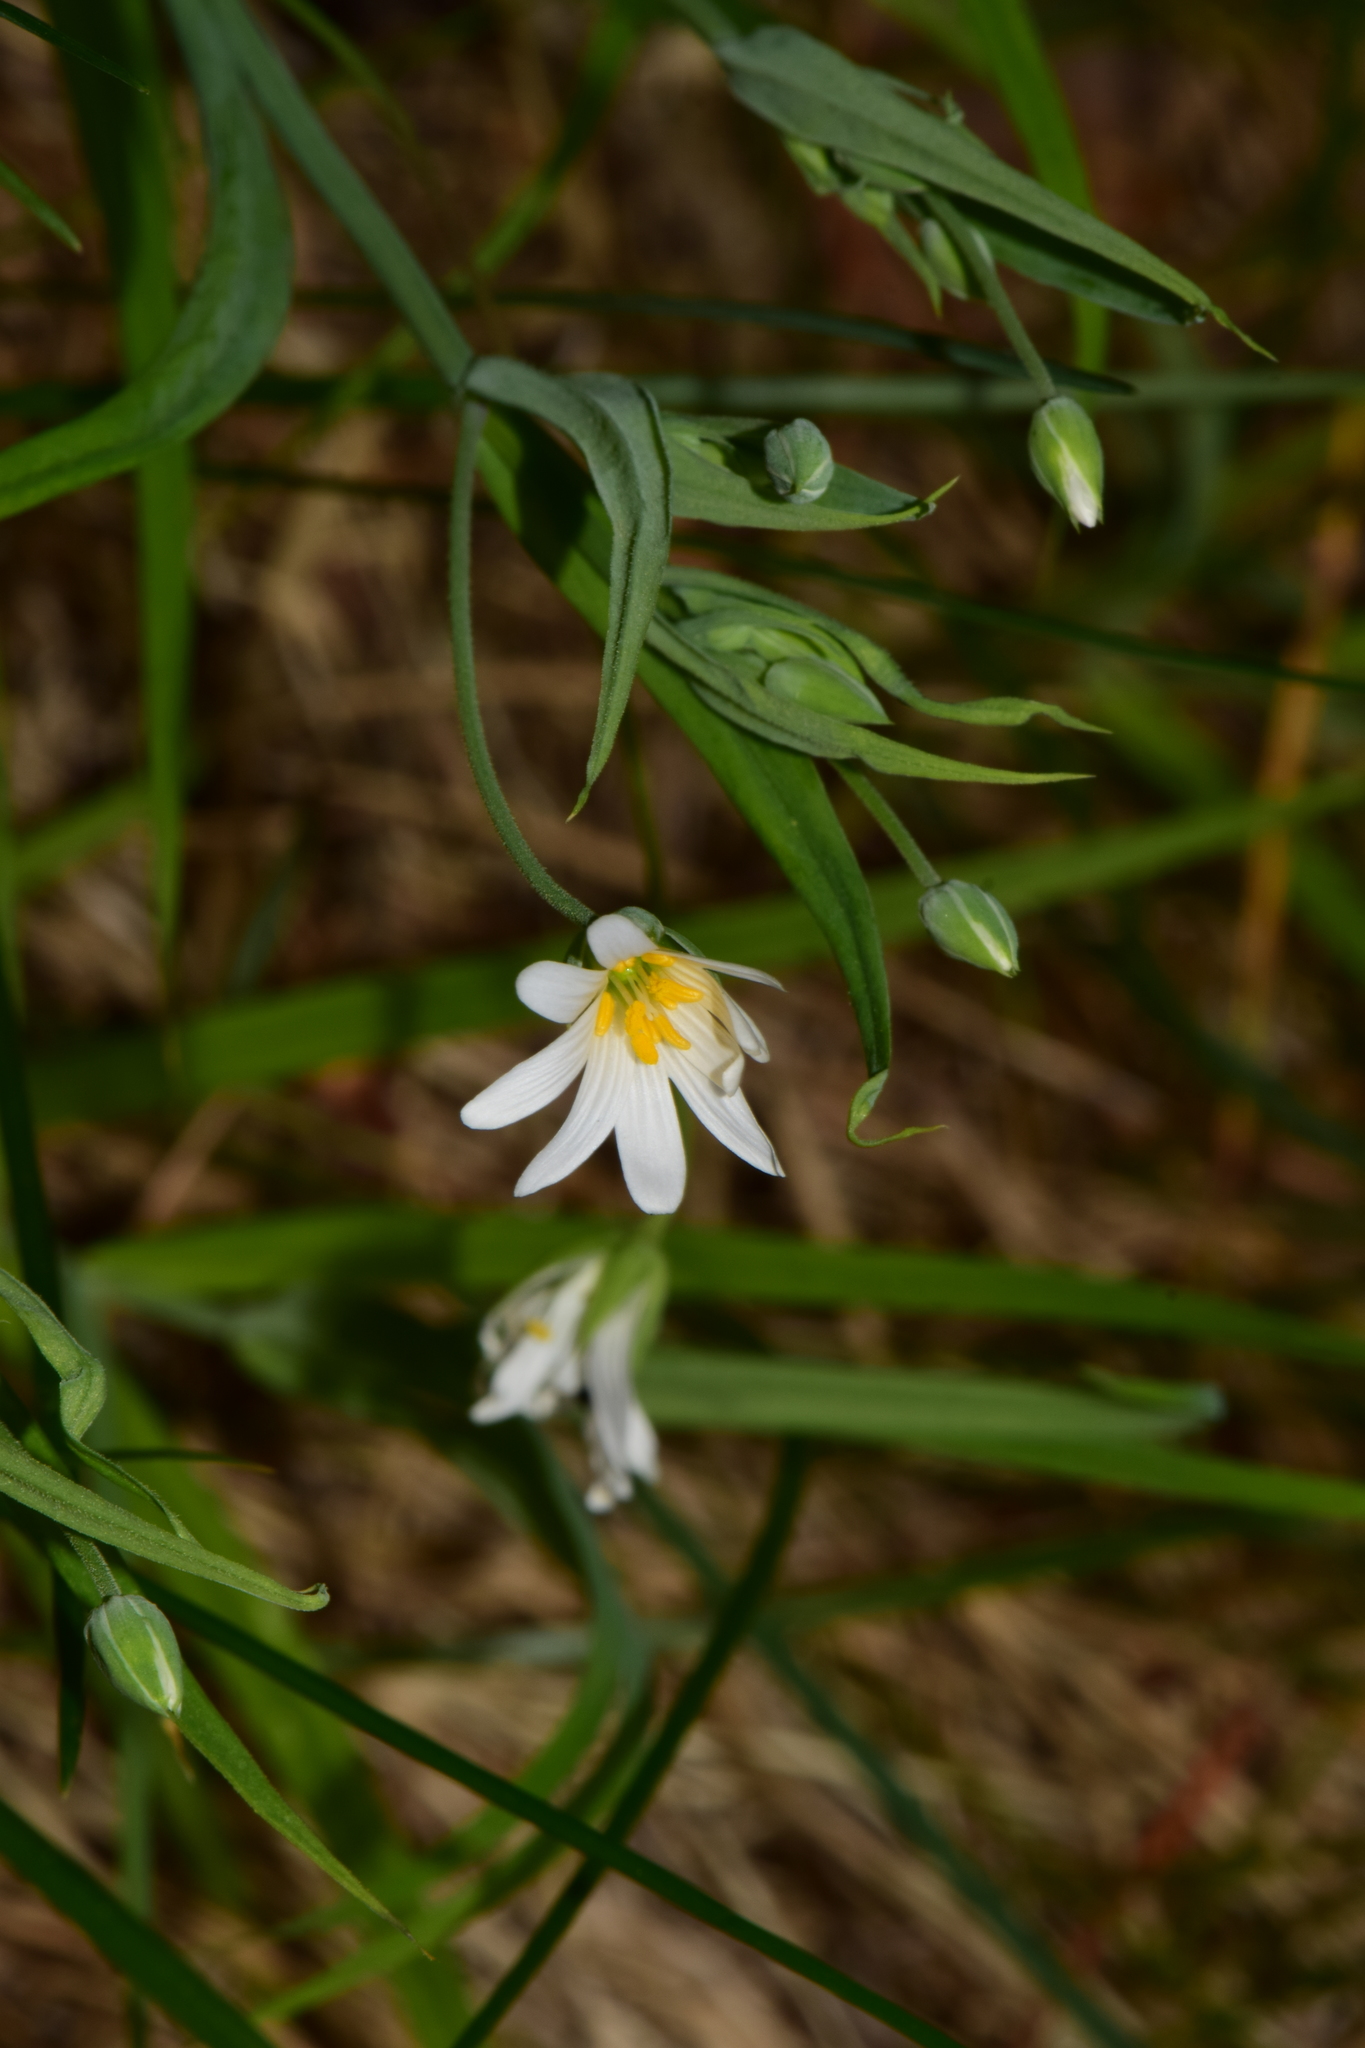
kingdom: Plantae
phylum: Tracheophyta
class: Magnoliopsida
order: Caryophyllales
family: Caryophyllaceae
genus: Rabelera
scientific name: Rabelera holostea
